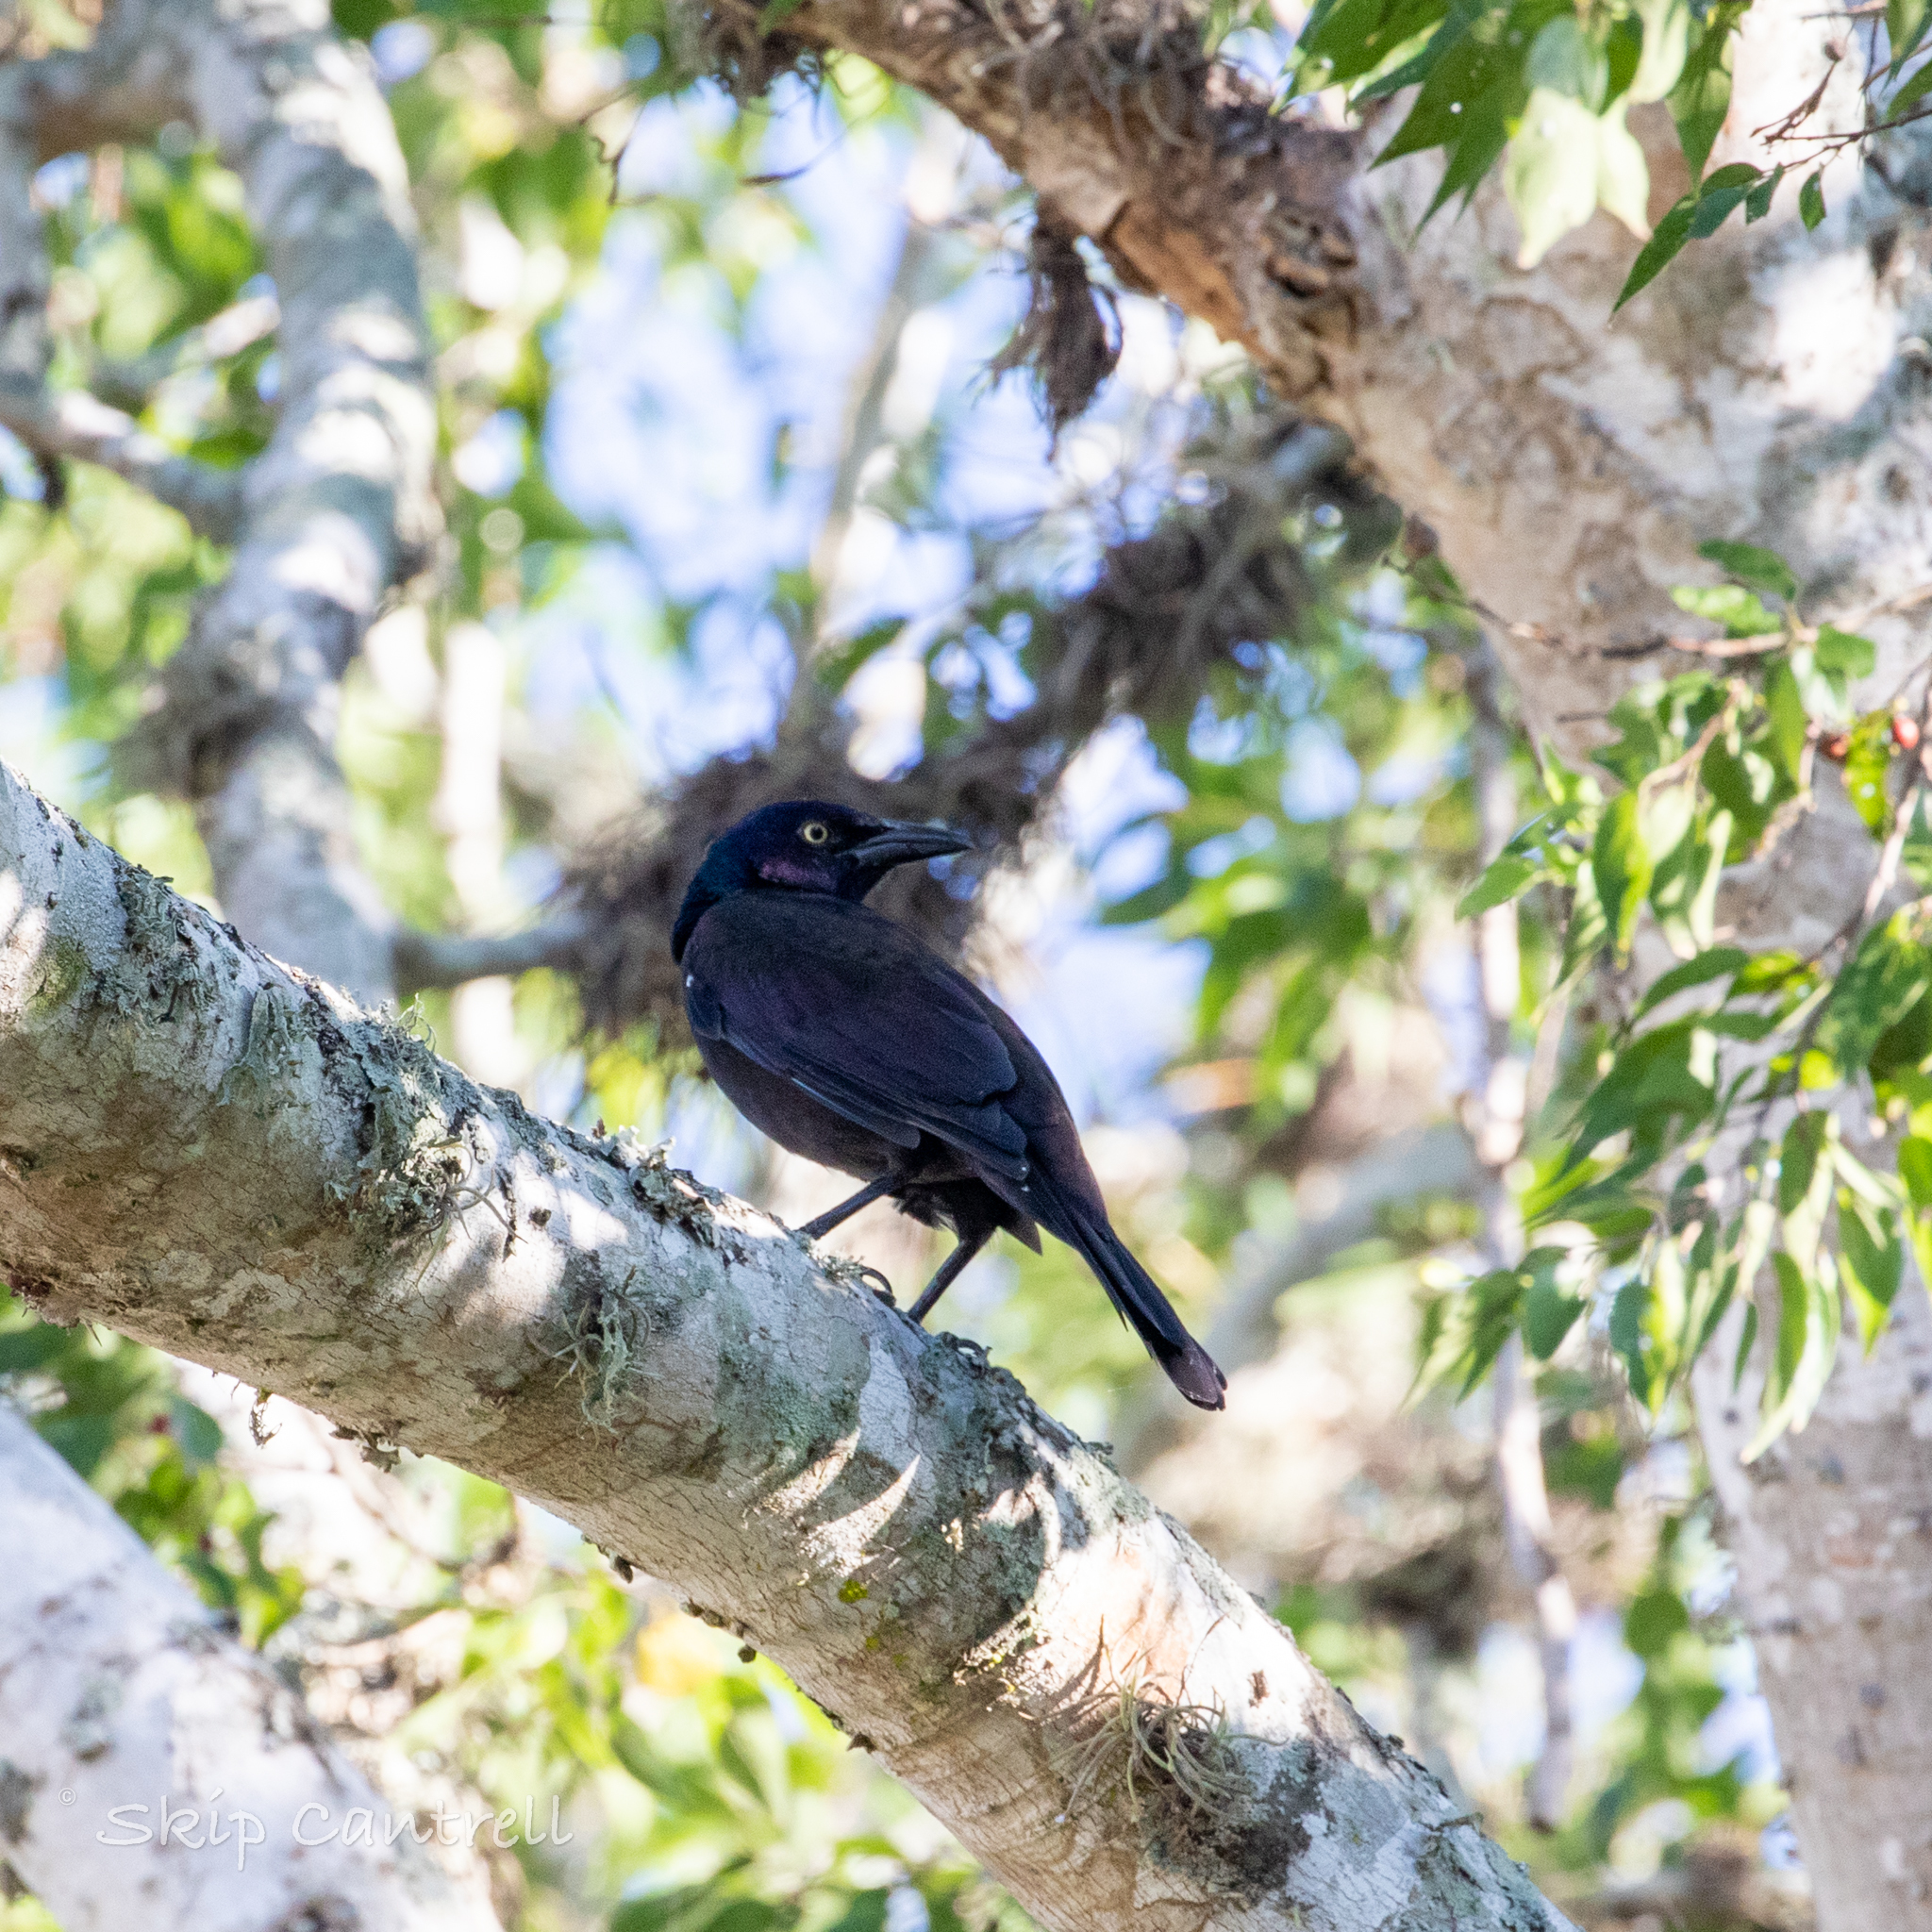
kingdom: Animalia
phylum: Chordata
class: Aves
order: Passeriformes
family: Icteridae
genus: Quiscalus
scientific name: Quiscalus quiscula
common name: Common grackle
